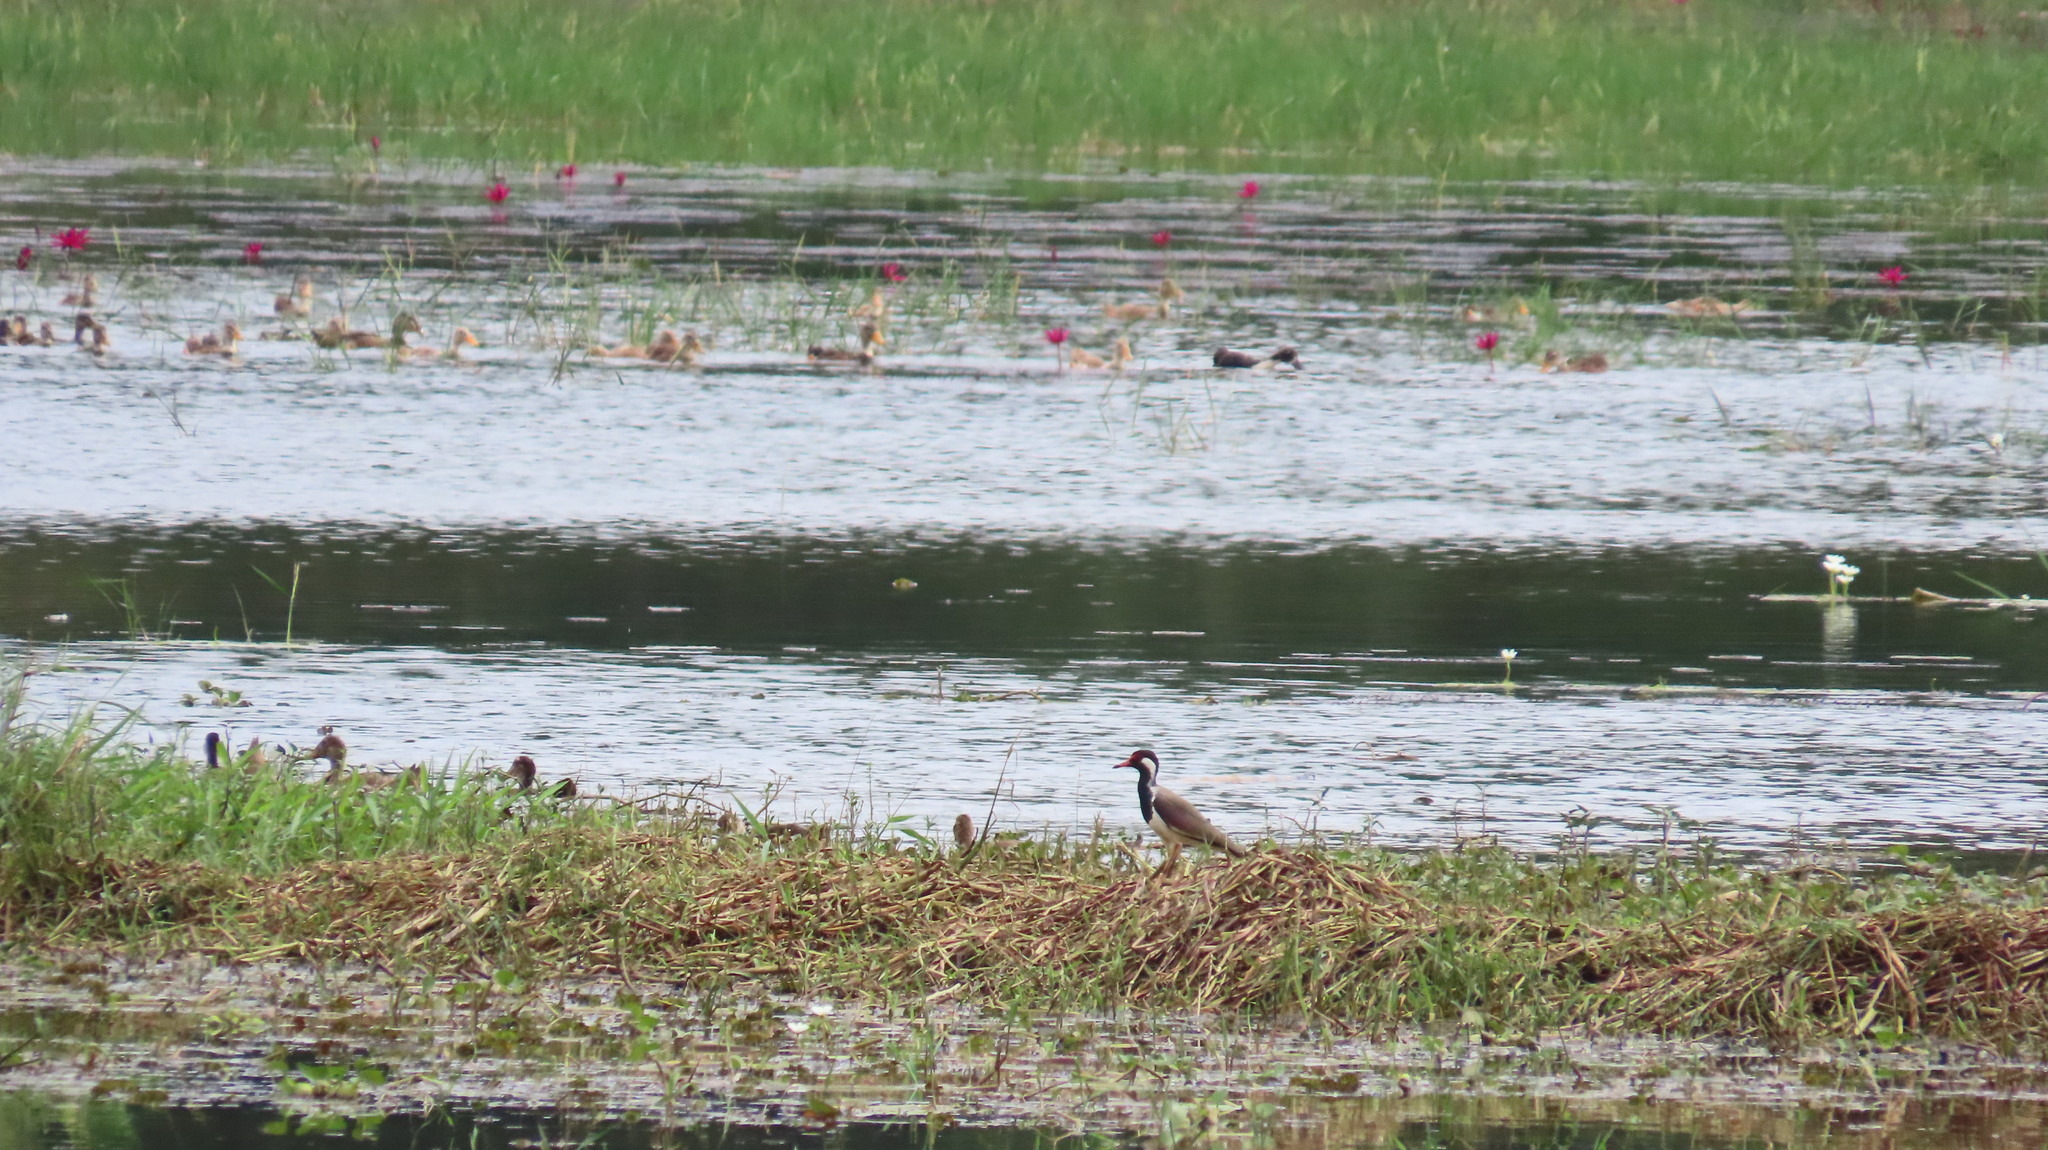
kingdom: Animalia
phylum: Chordata
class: Aves
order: Charadriiformes
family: Charadriidae
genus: Vanellus
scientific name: Vanellus indicus
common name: Red-wattled lapwing
